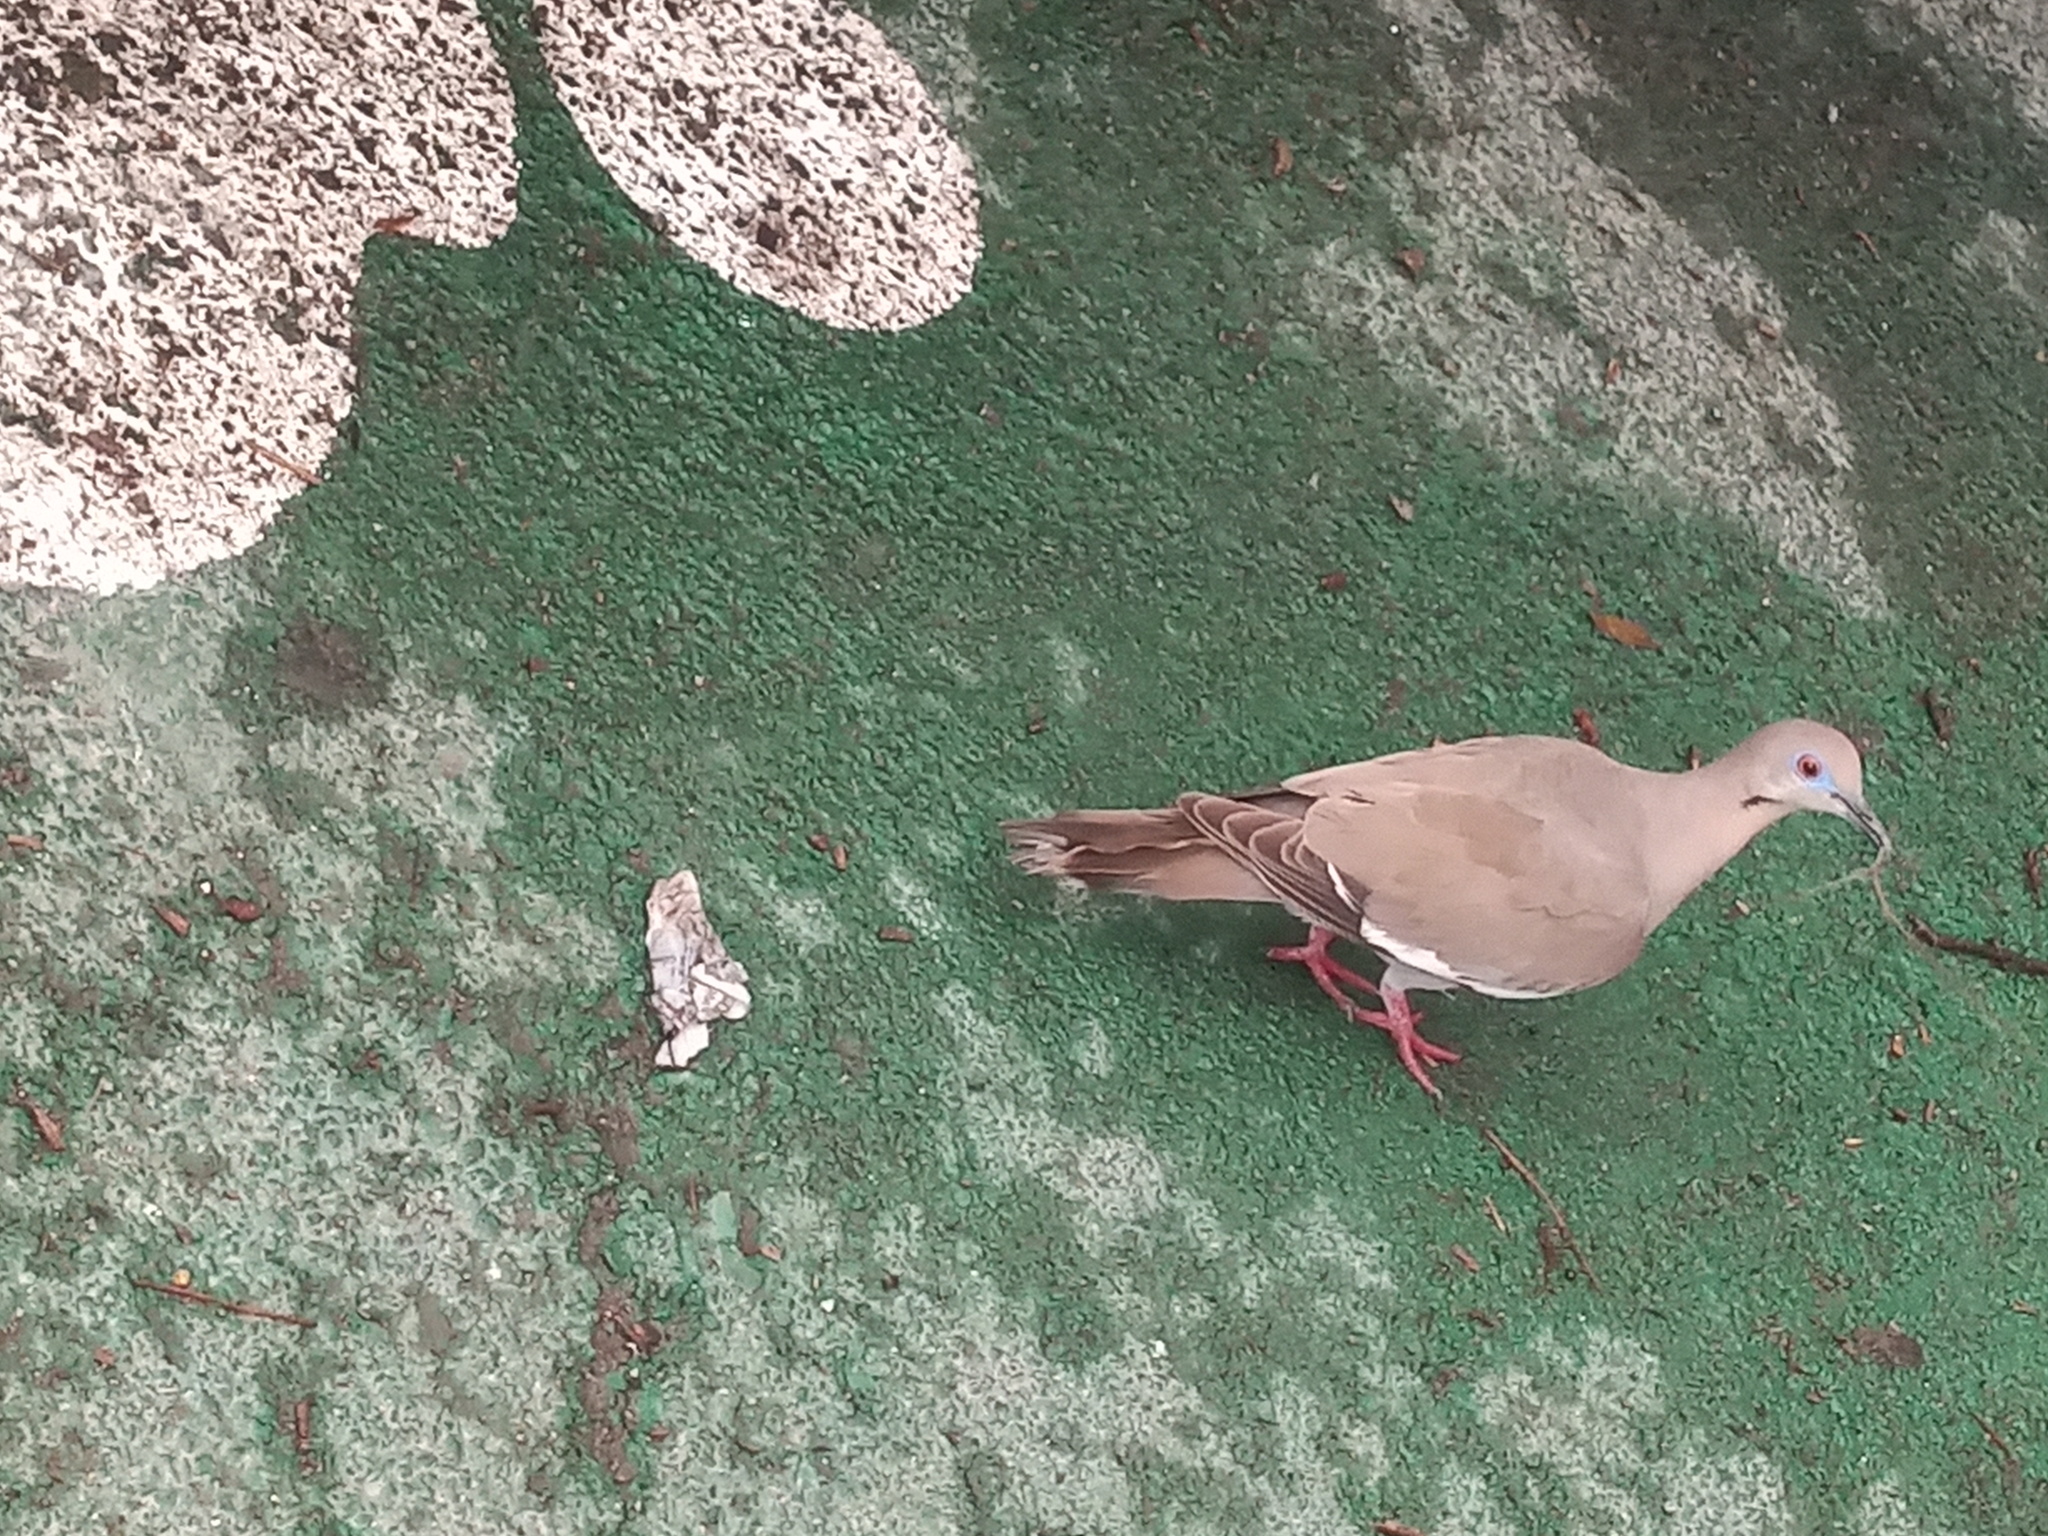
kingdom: Animalia
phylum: Chordata
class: Aves
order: Columbiformes
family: Columbidae
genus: Zenaida
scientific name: Zenaida asiatica
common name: White-winged dove
